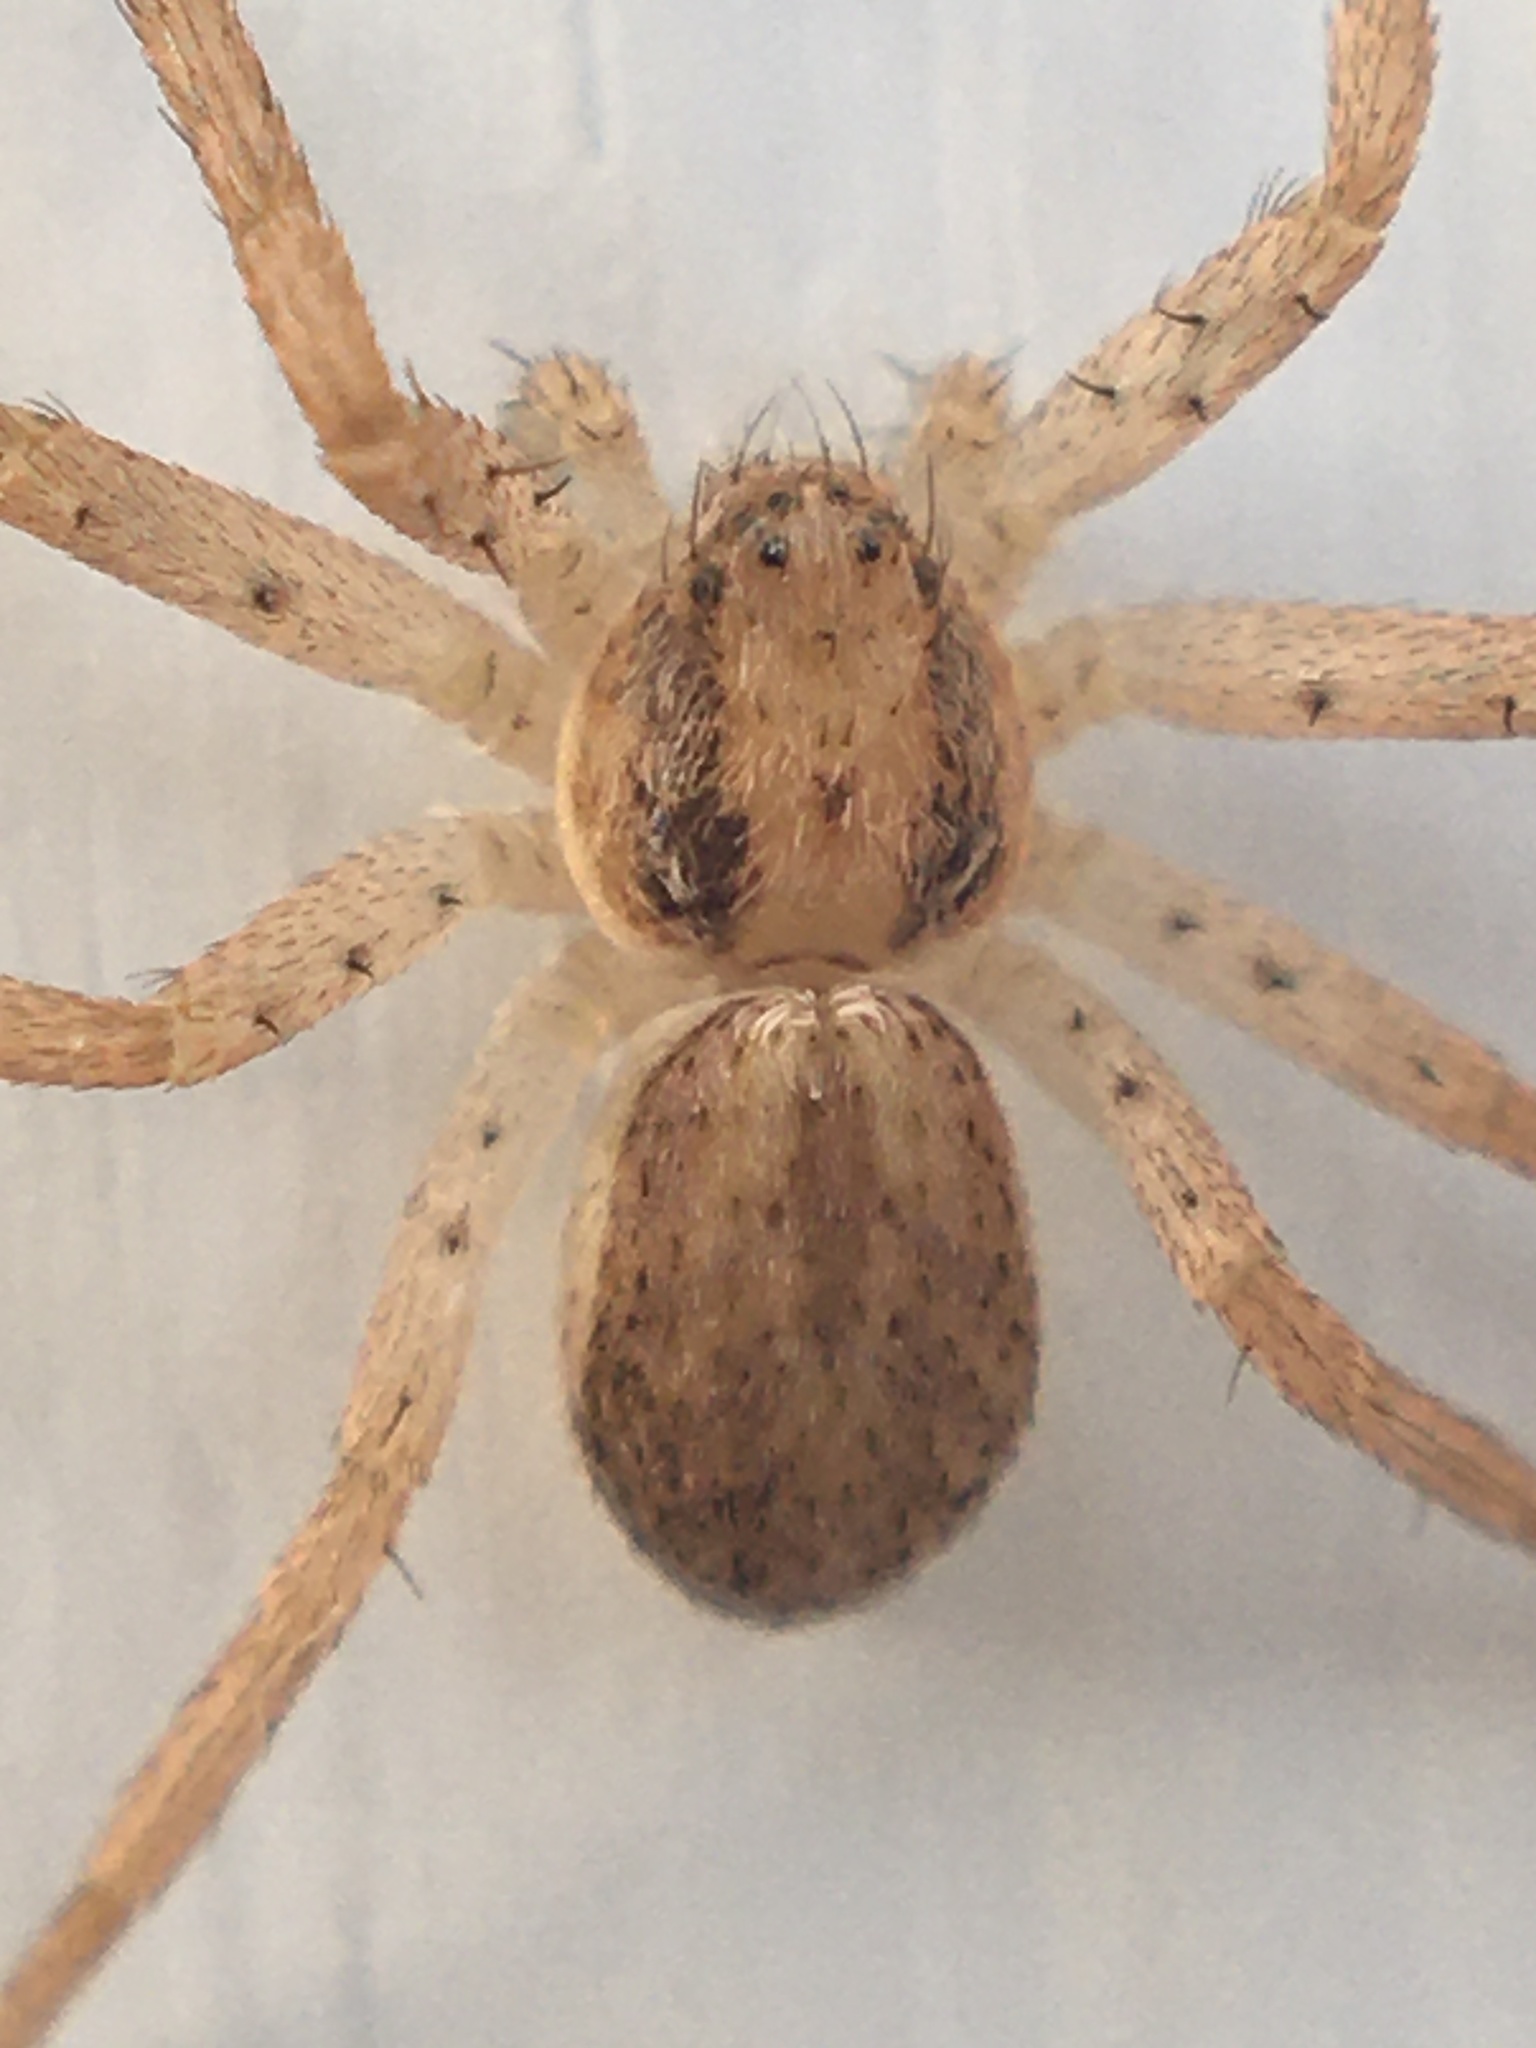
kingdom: Animalia
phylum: Arthropoda
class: Arachnida
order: Araneae
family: Philodromidae
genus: Philodromus
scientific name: Philodromus dispar
